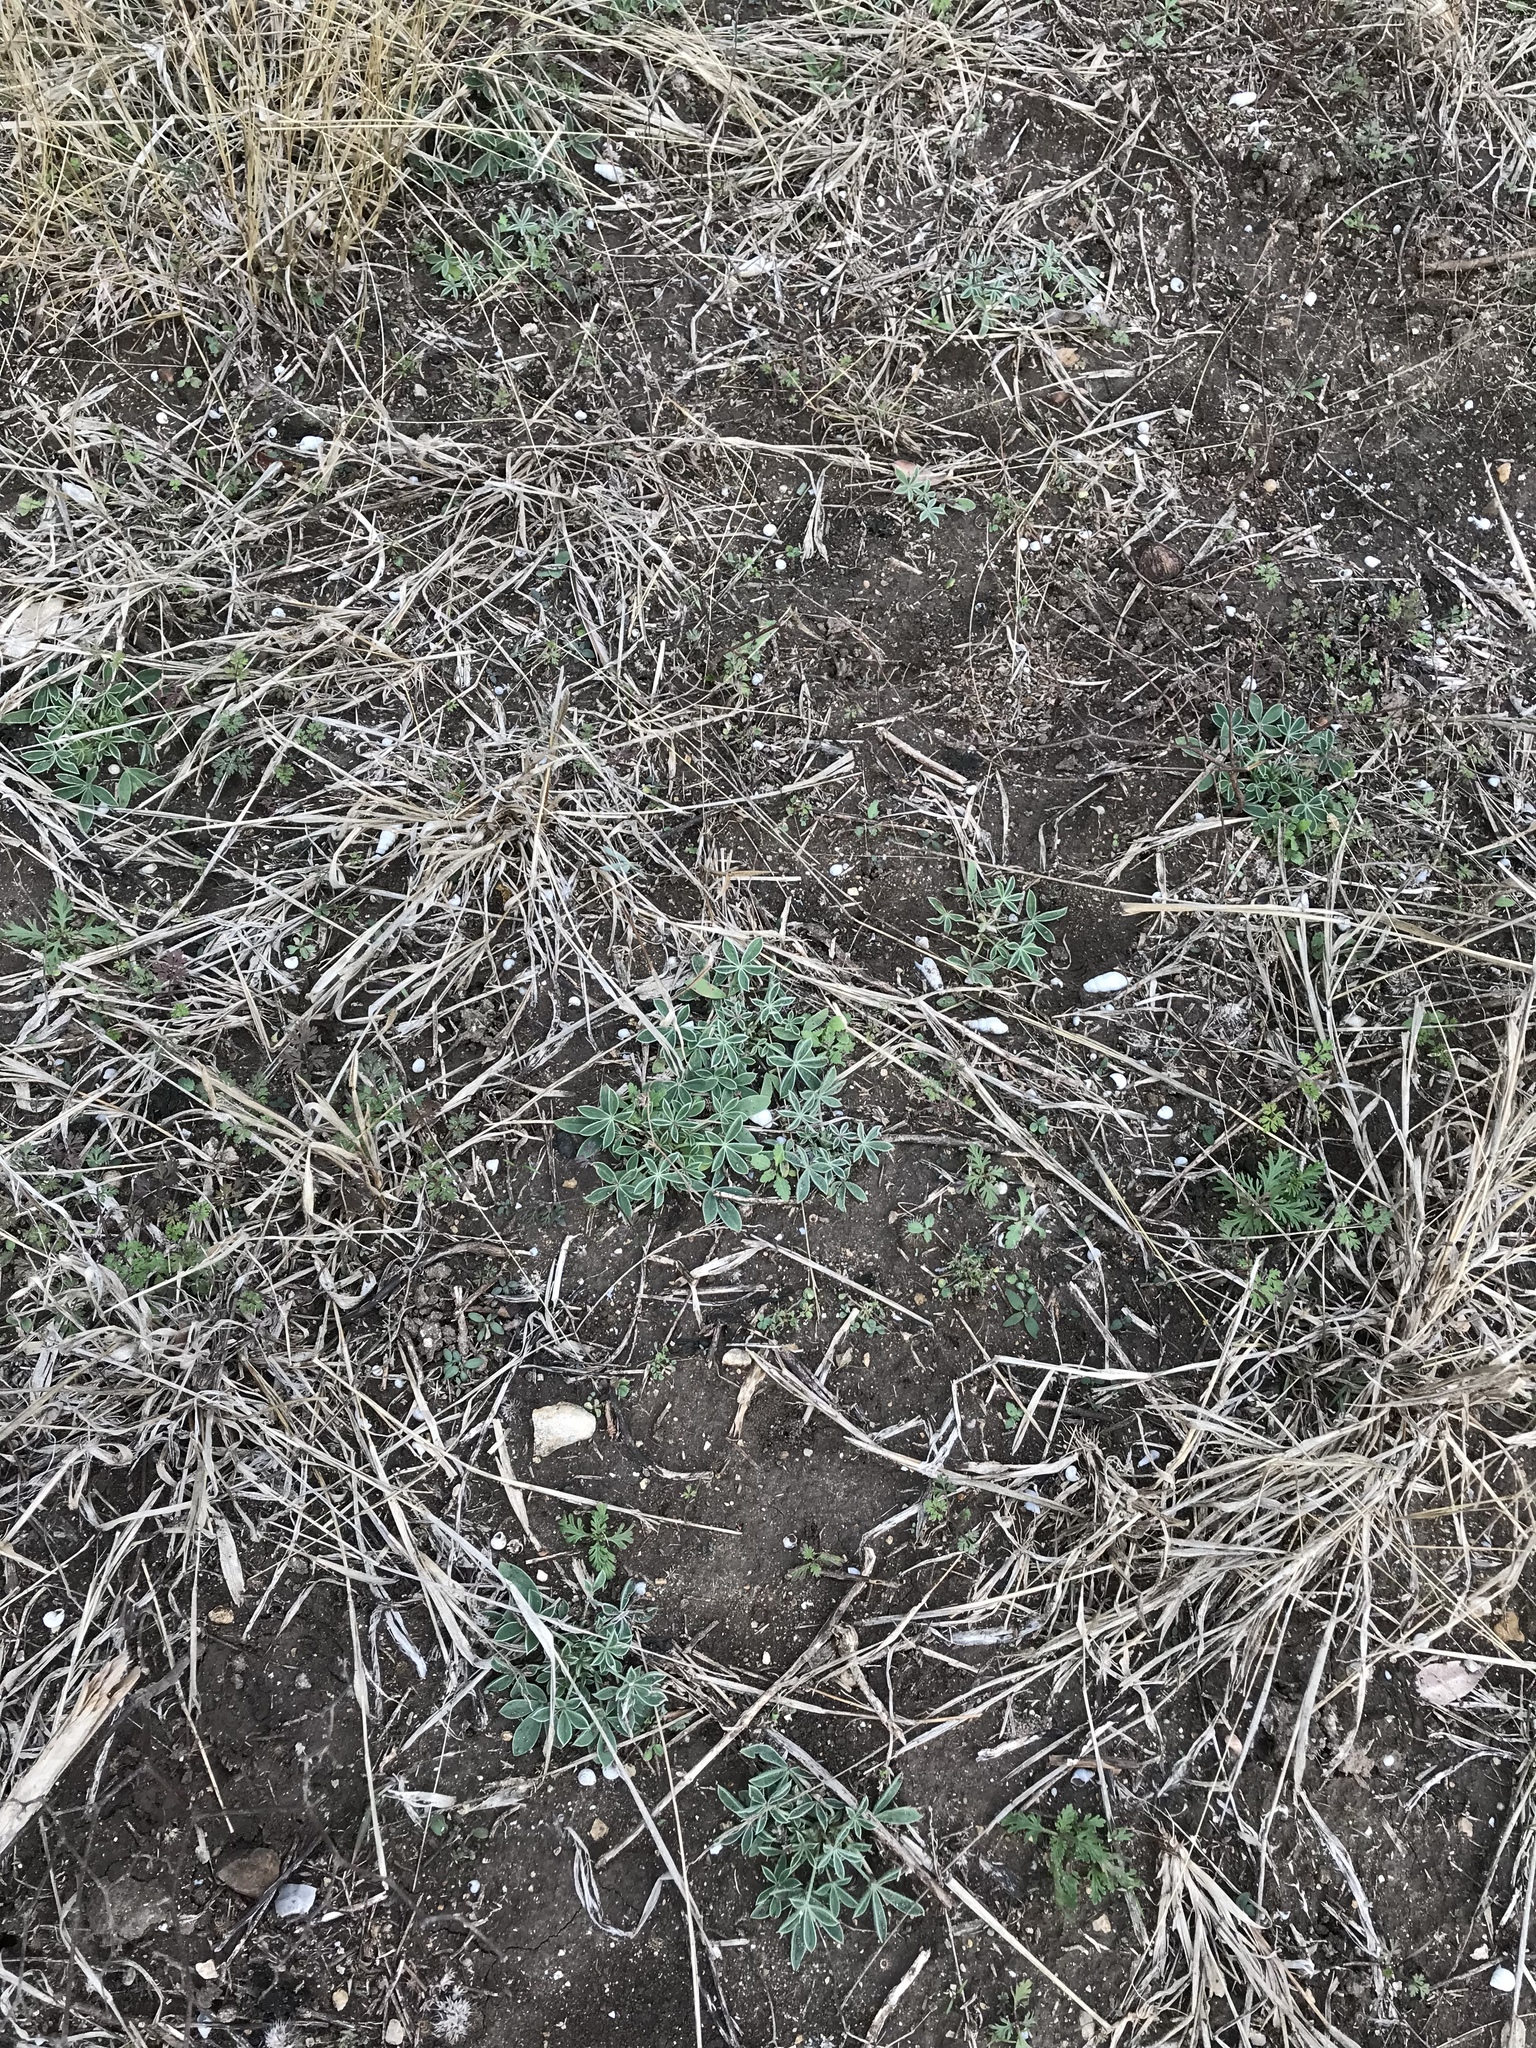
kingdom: Plantae
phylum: Tracheophyta
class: Magnoliopsida
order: Fabales
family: Fabaceae
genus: Lupinus
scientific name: Lupinus texensis
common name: Texas bluebonnet
